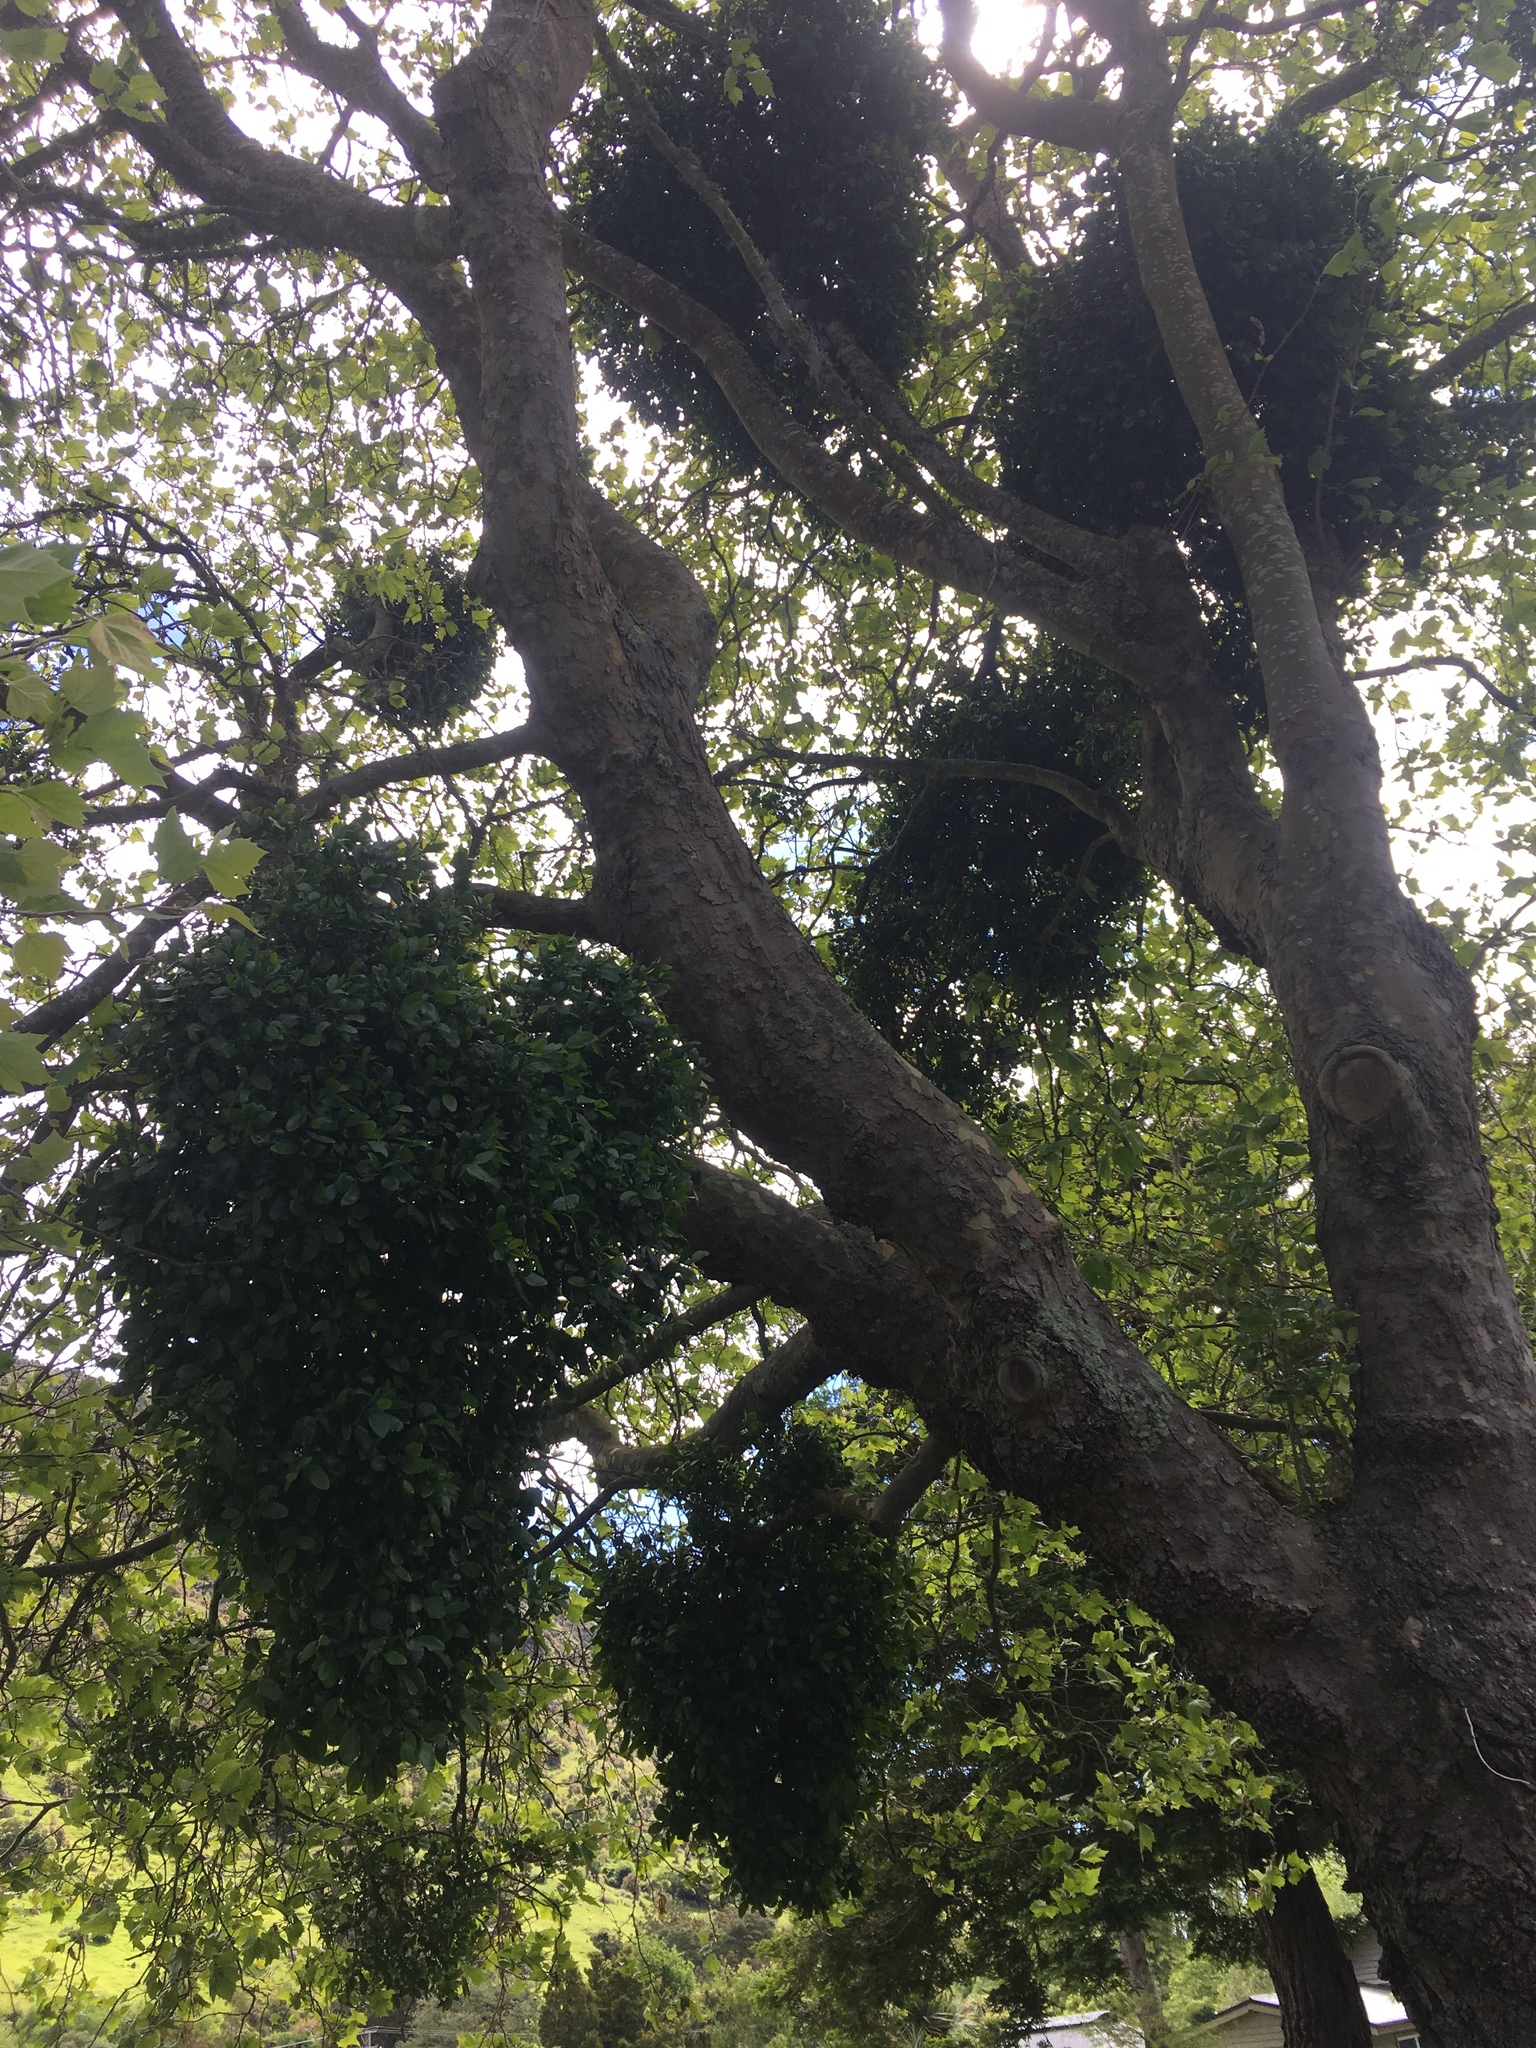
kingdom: Plantae
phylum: Tracheophyta
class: Magnoliopsida
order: Santalales
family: Loranthaceae
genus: Ileostylus
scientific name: Ileostylus micranthus
